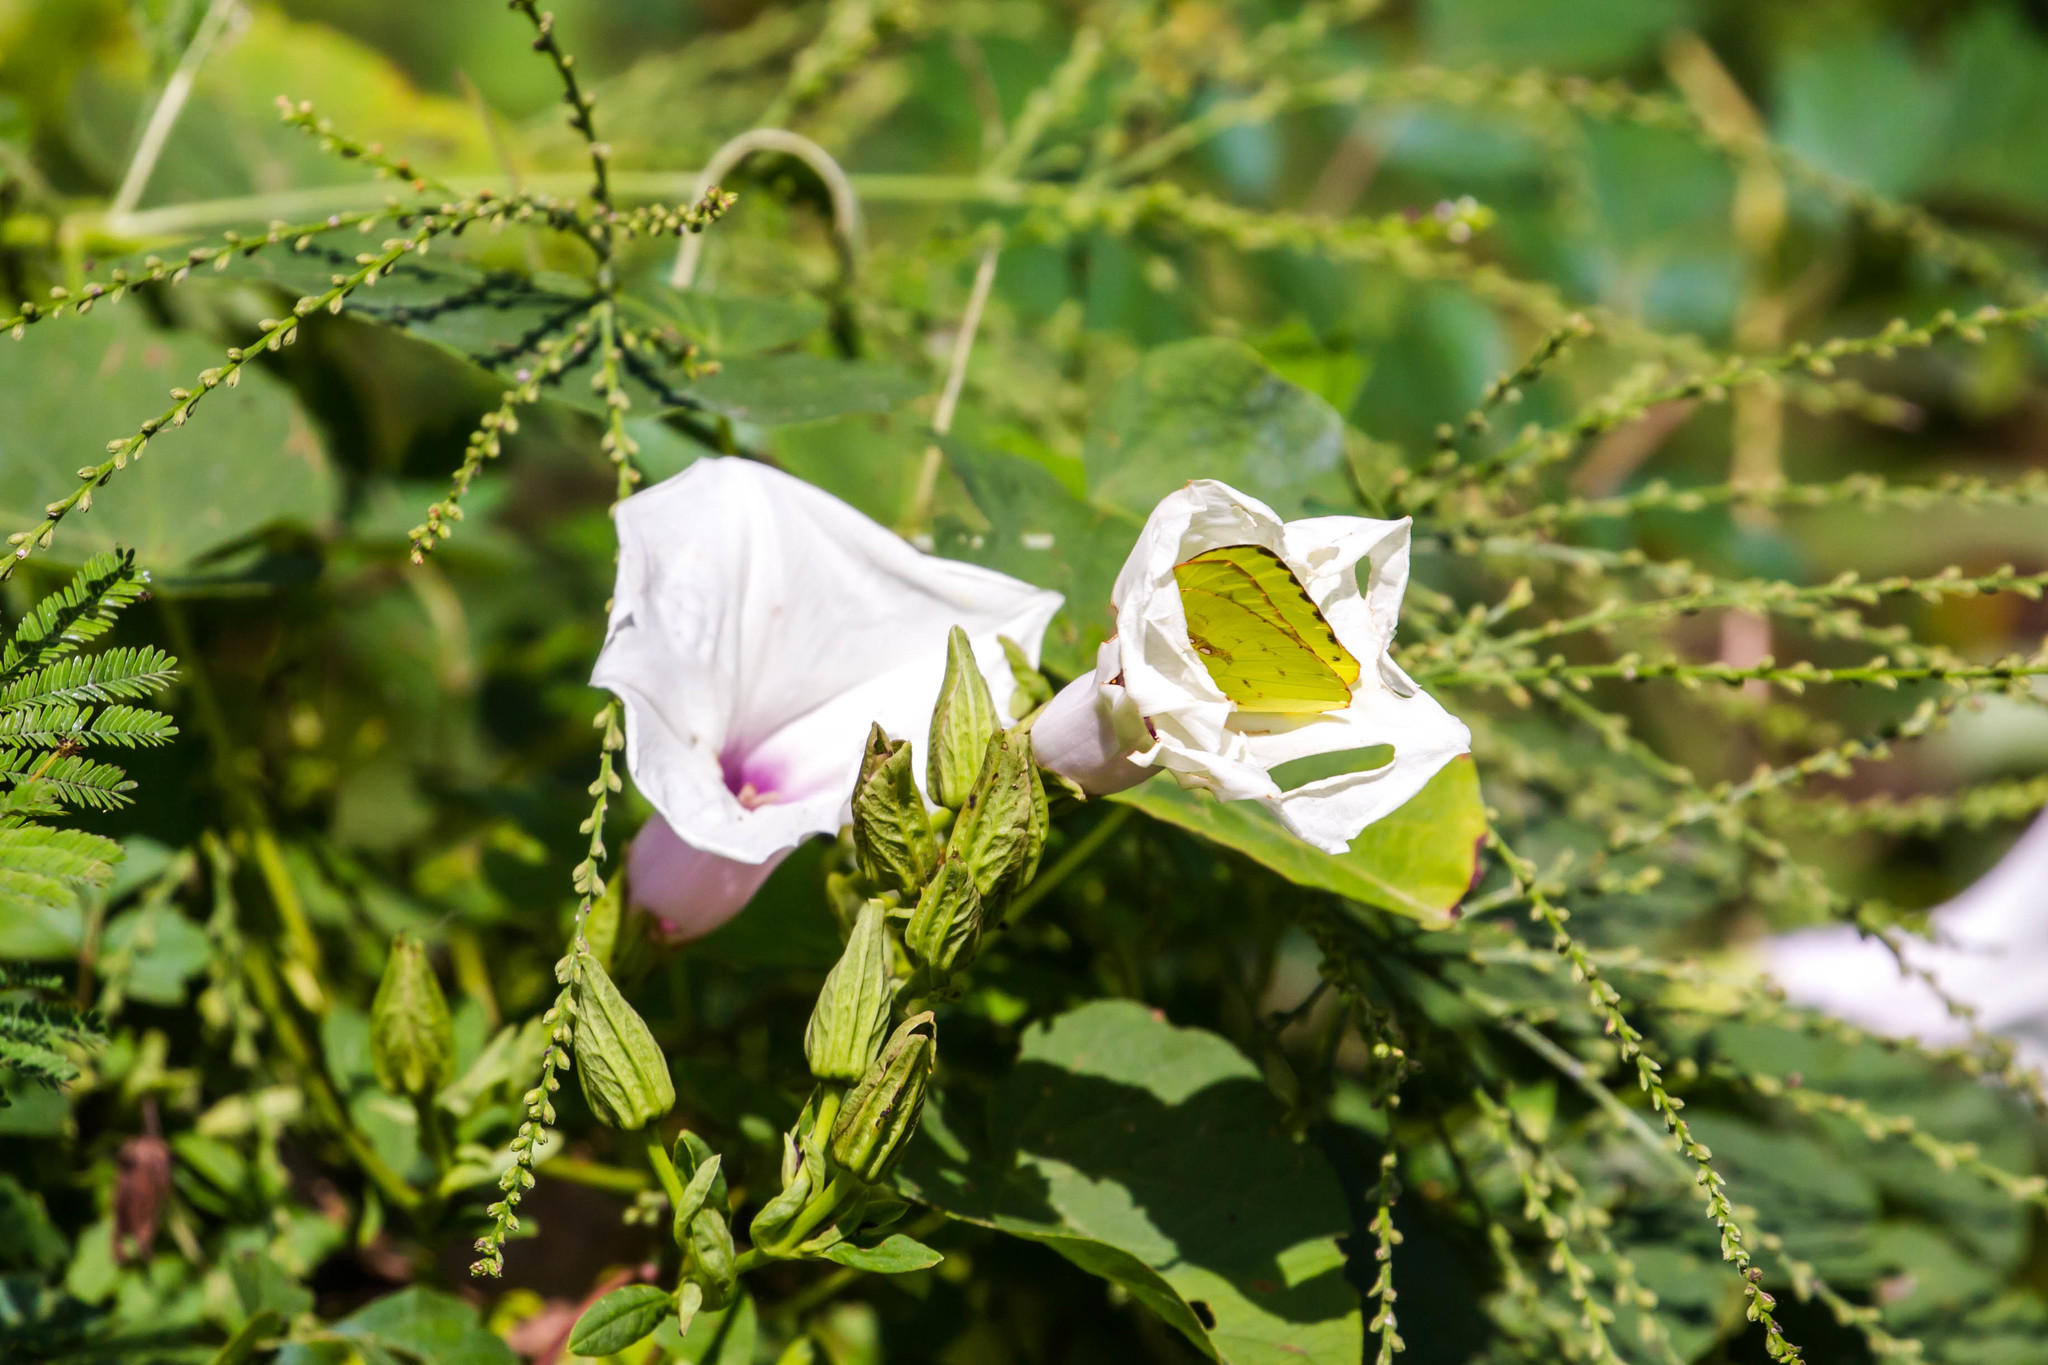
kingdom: Animalia
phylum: Arthropoda
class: Insecta
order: Lepidoptera
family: Pieridae
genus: Phoebis
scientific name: Phoebis sennae
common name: Cloudless sulphur
